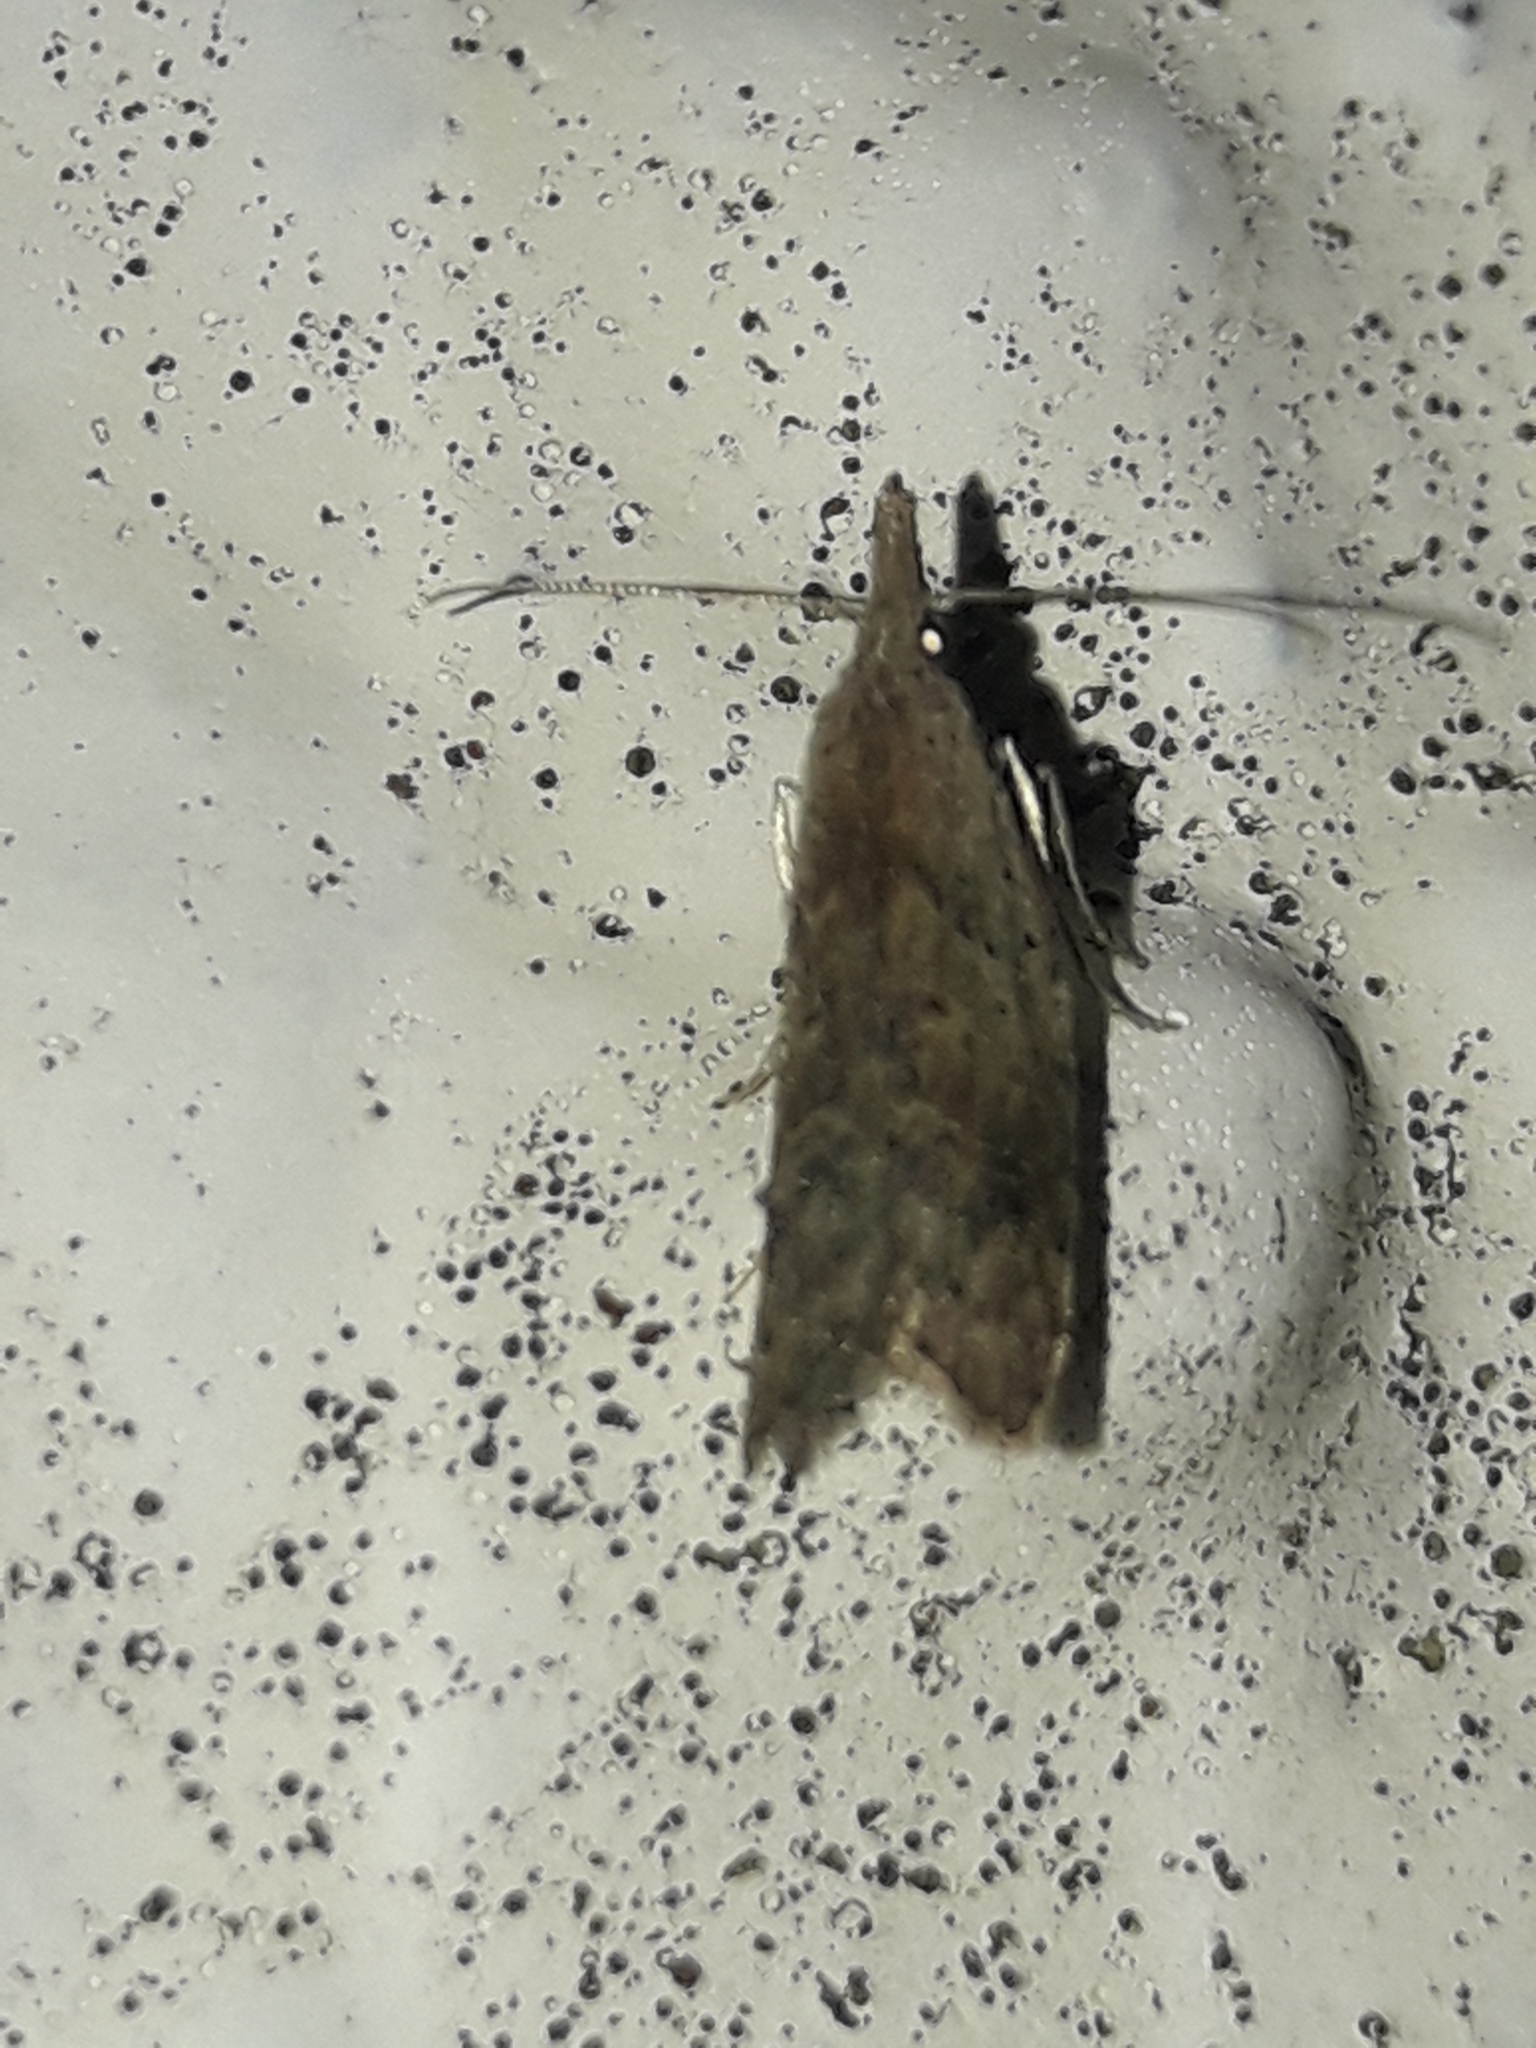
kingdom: Animalia
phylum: Arthropoda
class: Insecta
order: Lepidoptera
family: Carposinidae
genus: Carposina
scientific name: Carposina rubophaga
